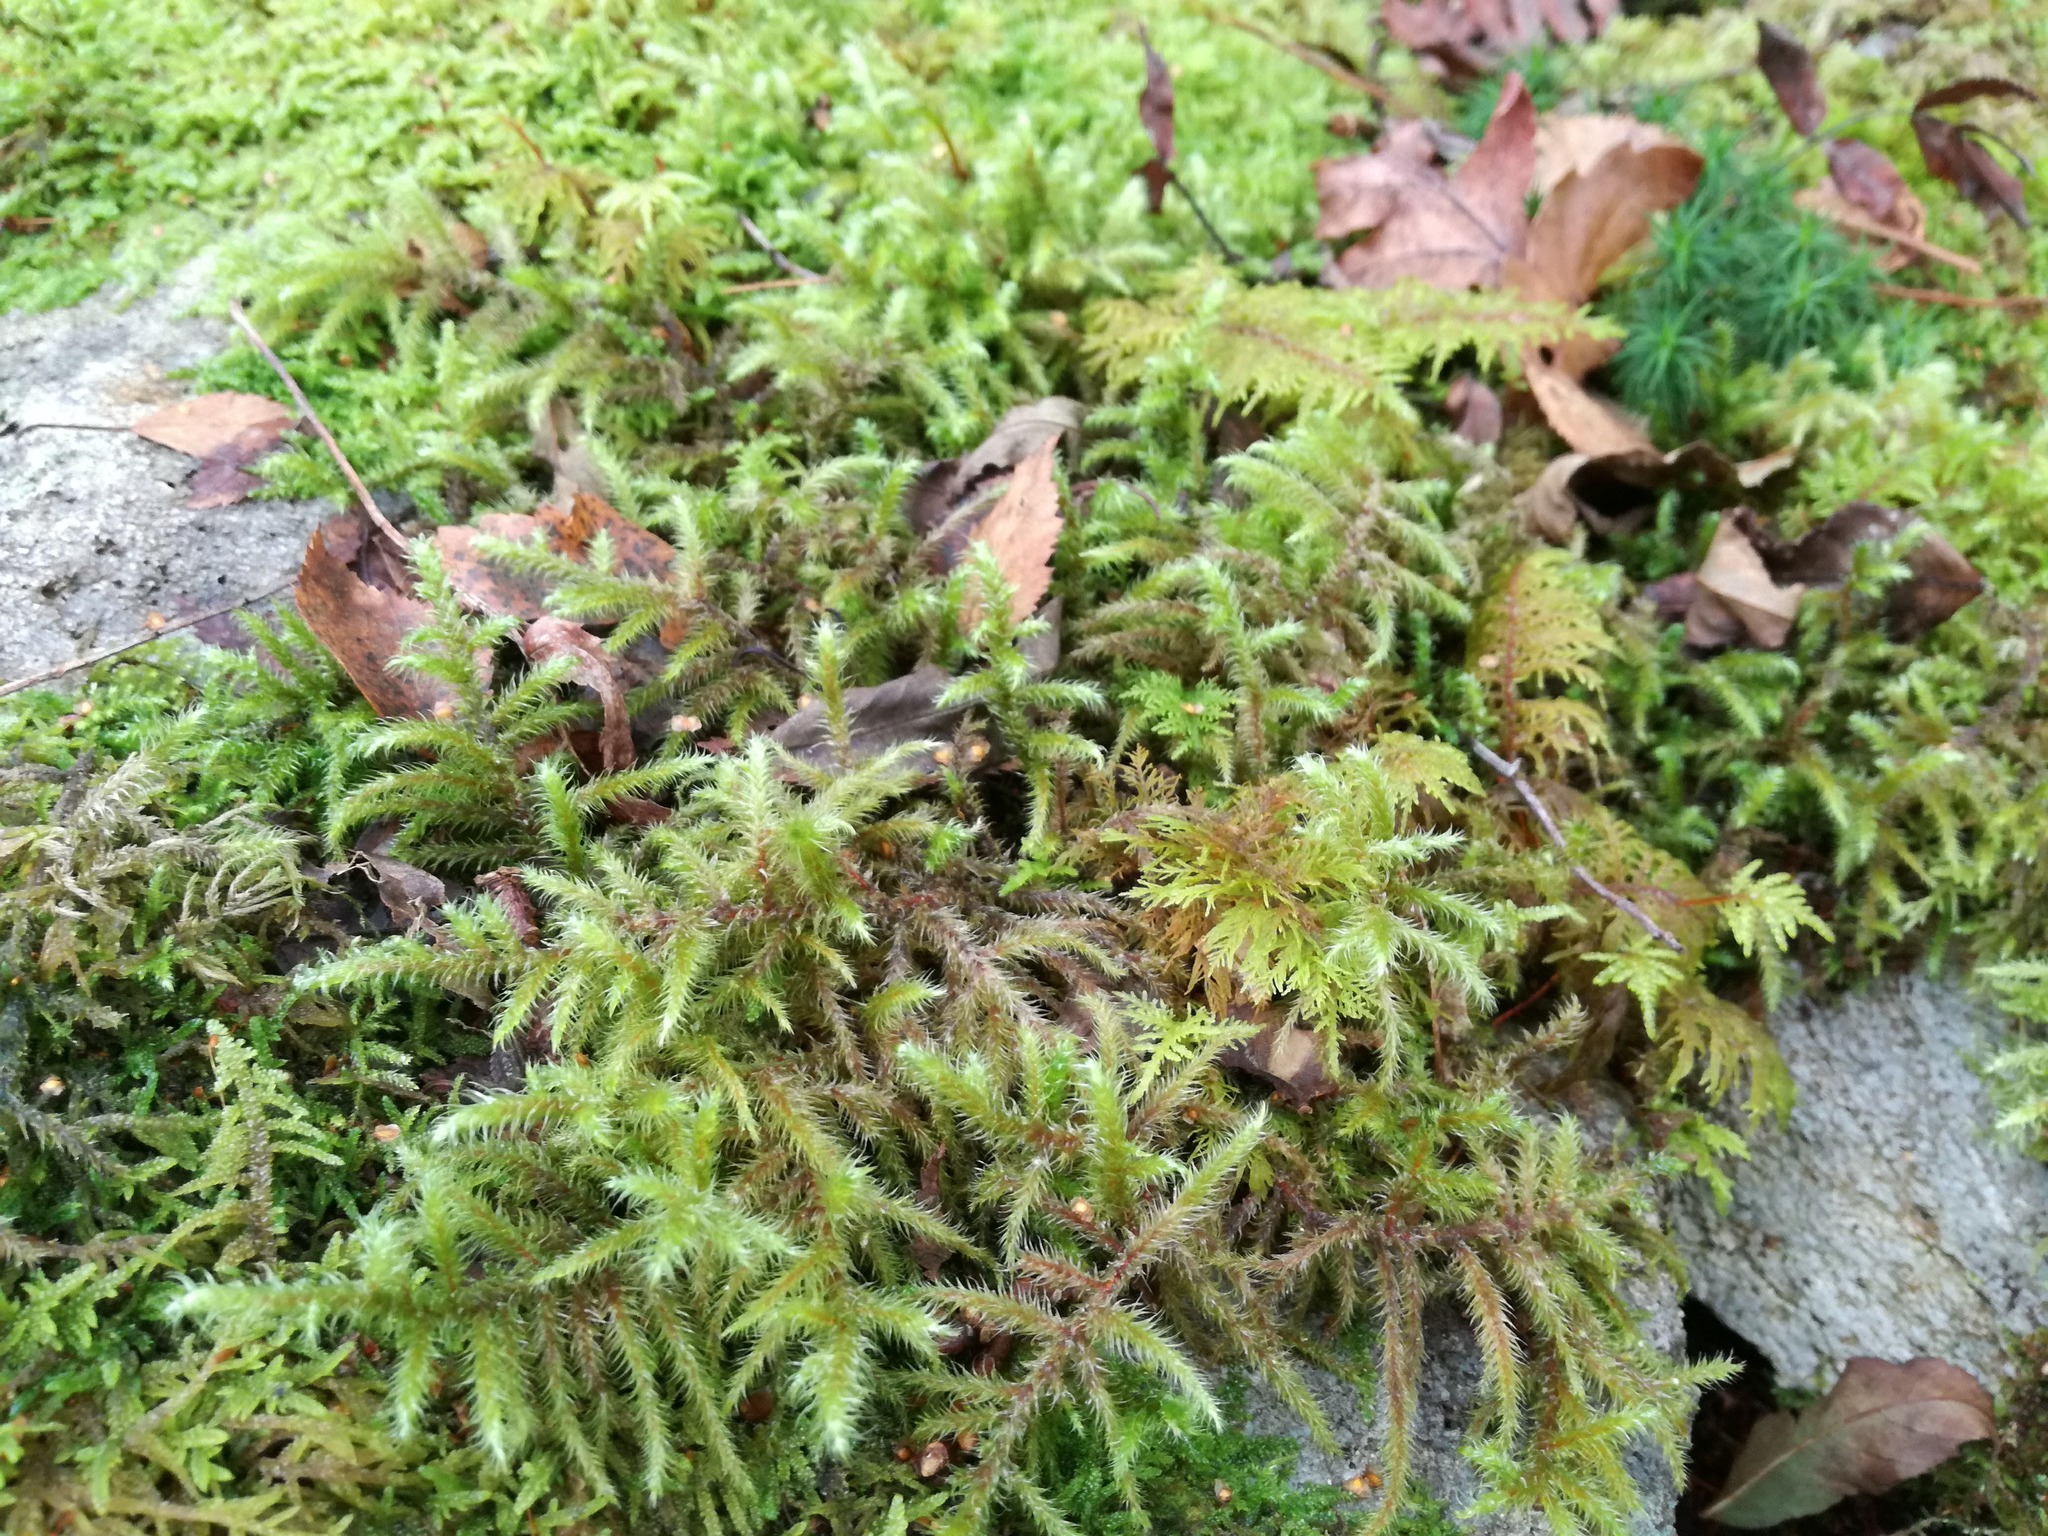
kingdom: Plantae
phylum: Bryophyta
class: Bryopsida
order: Hypnales
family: Hylocomiaceae
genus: Rhytidiadelphus
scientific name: Rhytidiadelphus loreus
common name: Lanky moss
